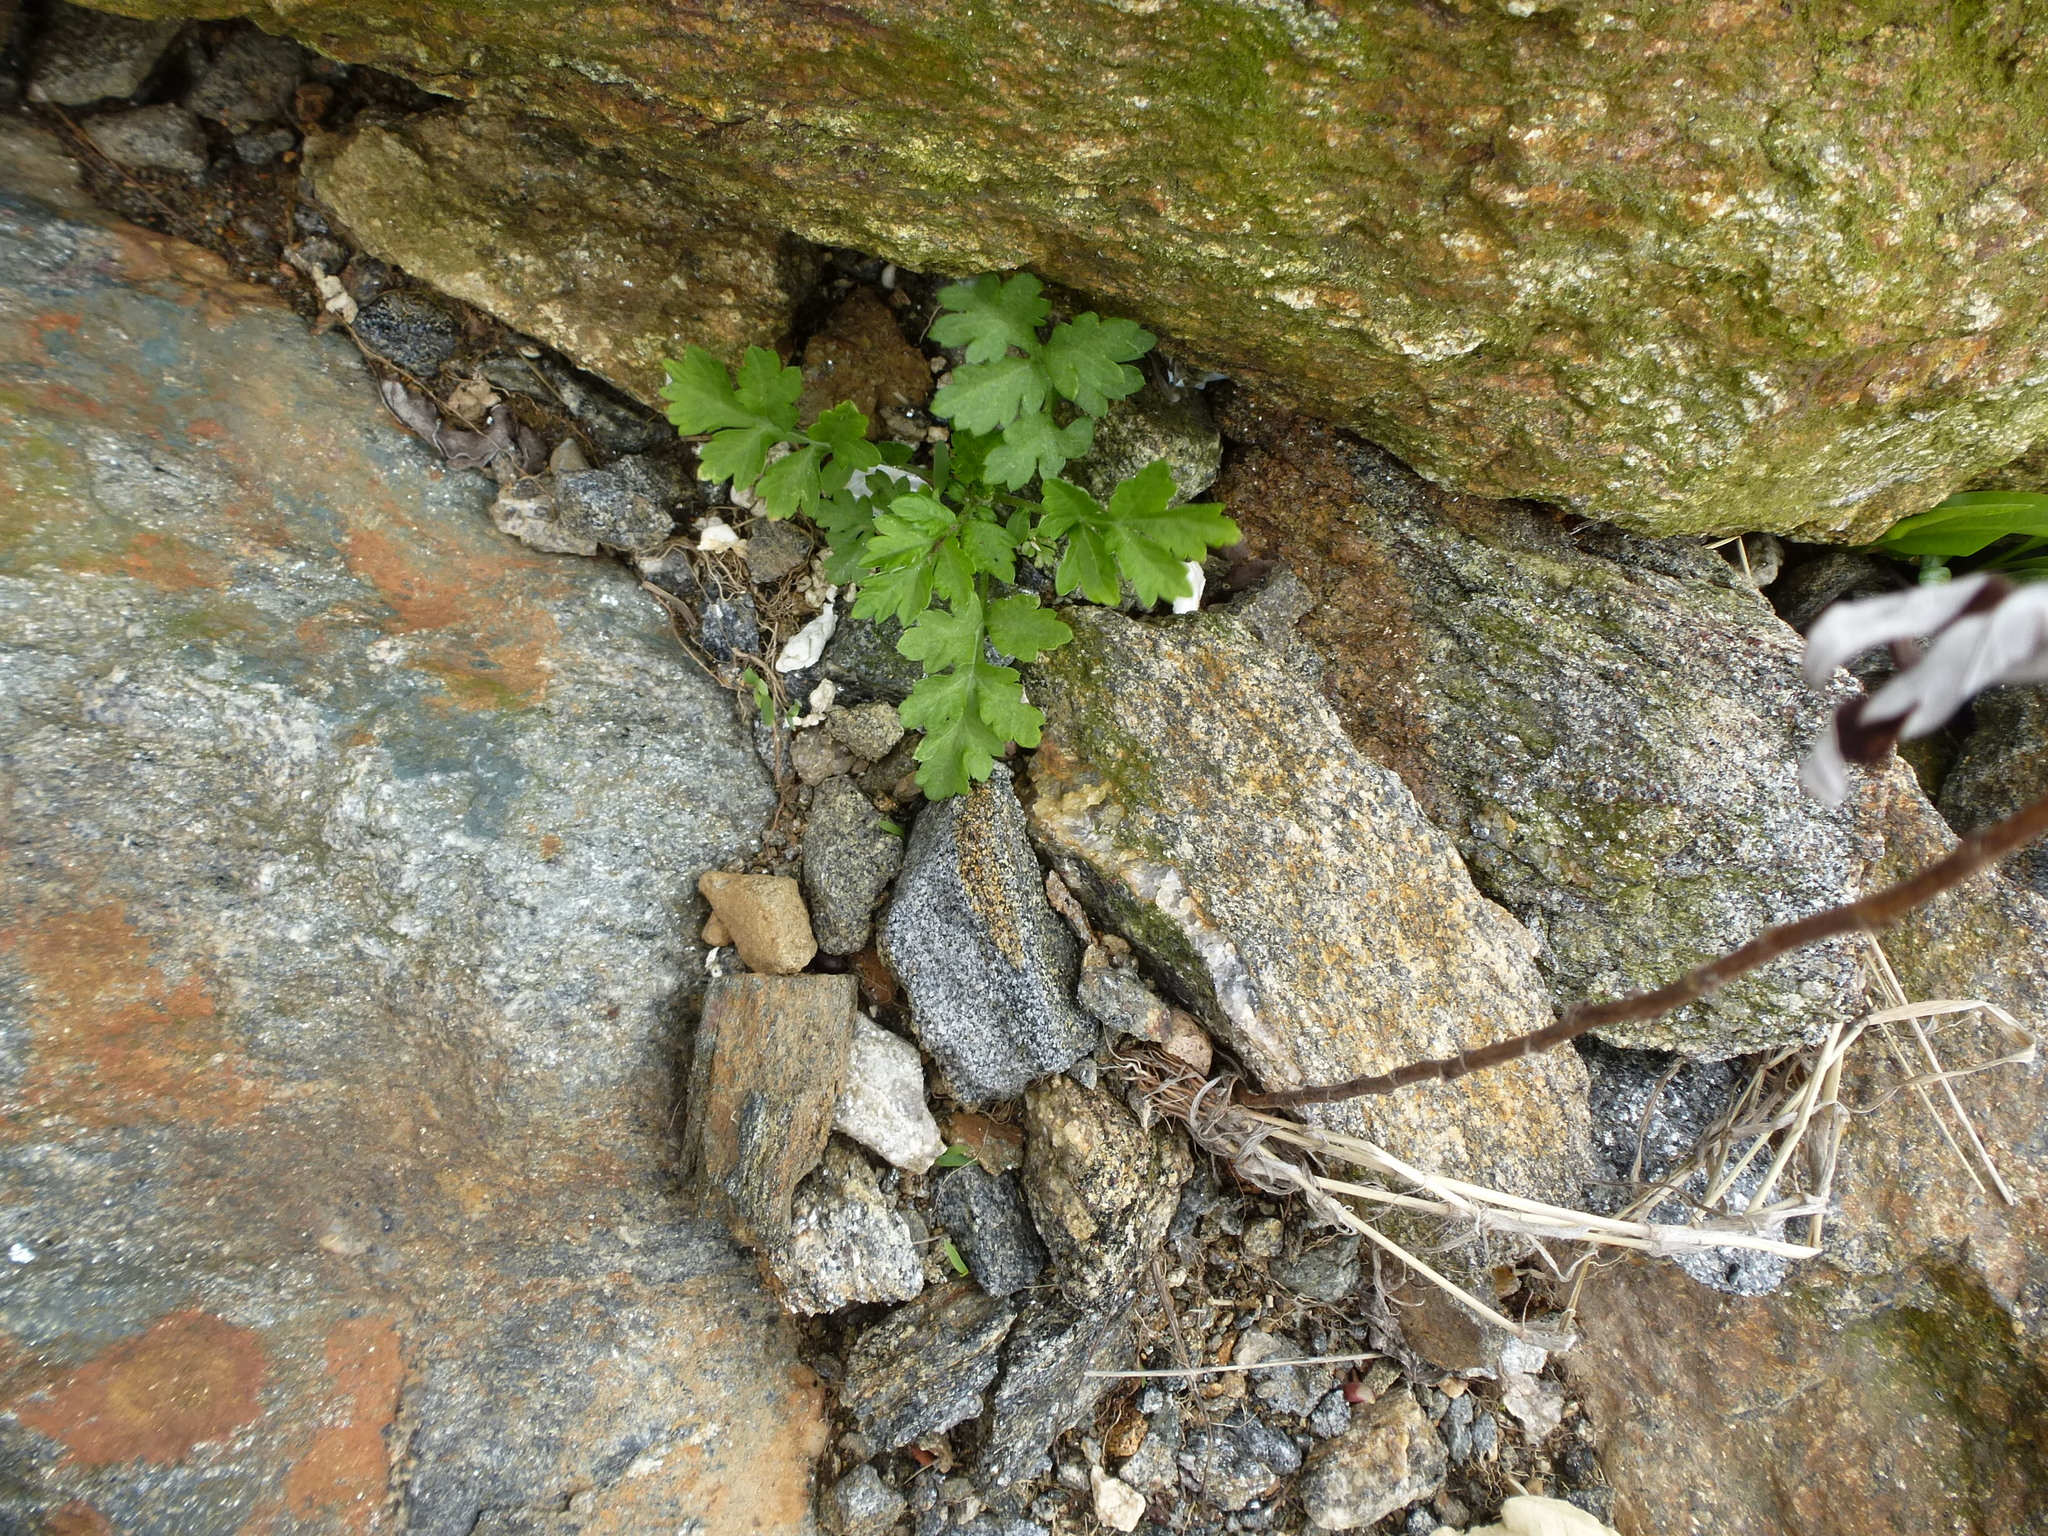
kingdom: Plantae
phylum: Tracheophyta
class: Magnoliopsida
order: Asterales
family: Asteraceae
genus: Artemisia
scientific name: Artemisia vulgaris
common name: Mugwort
